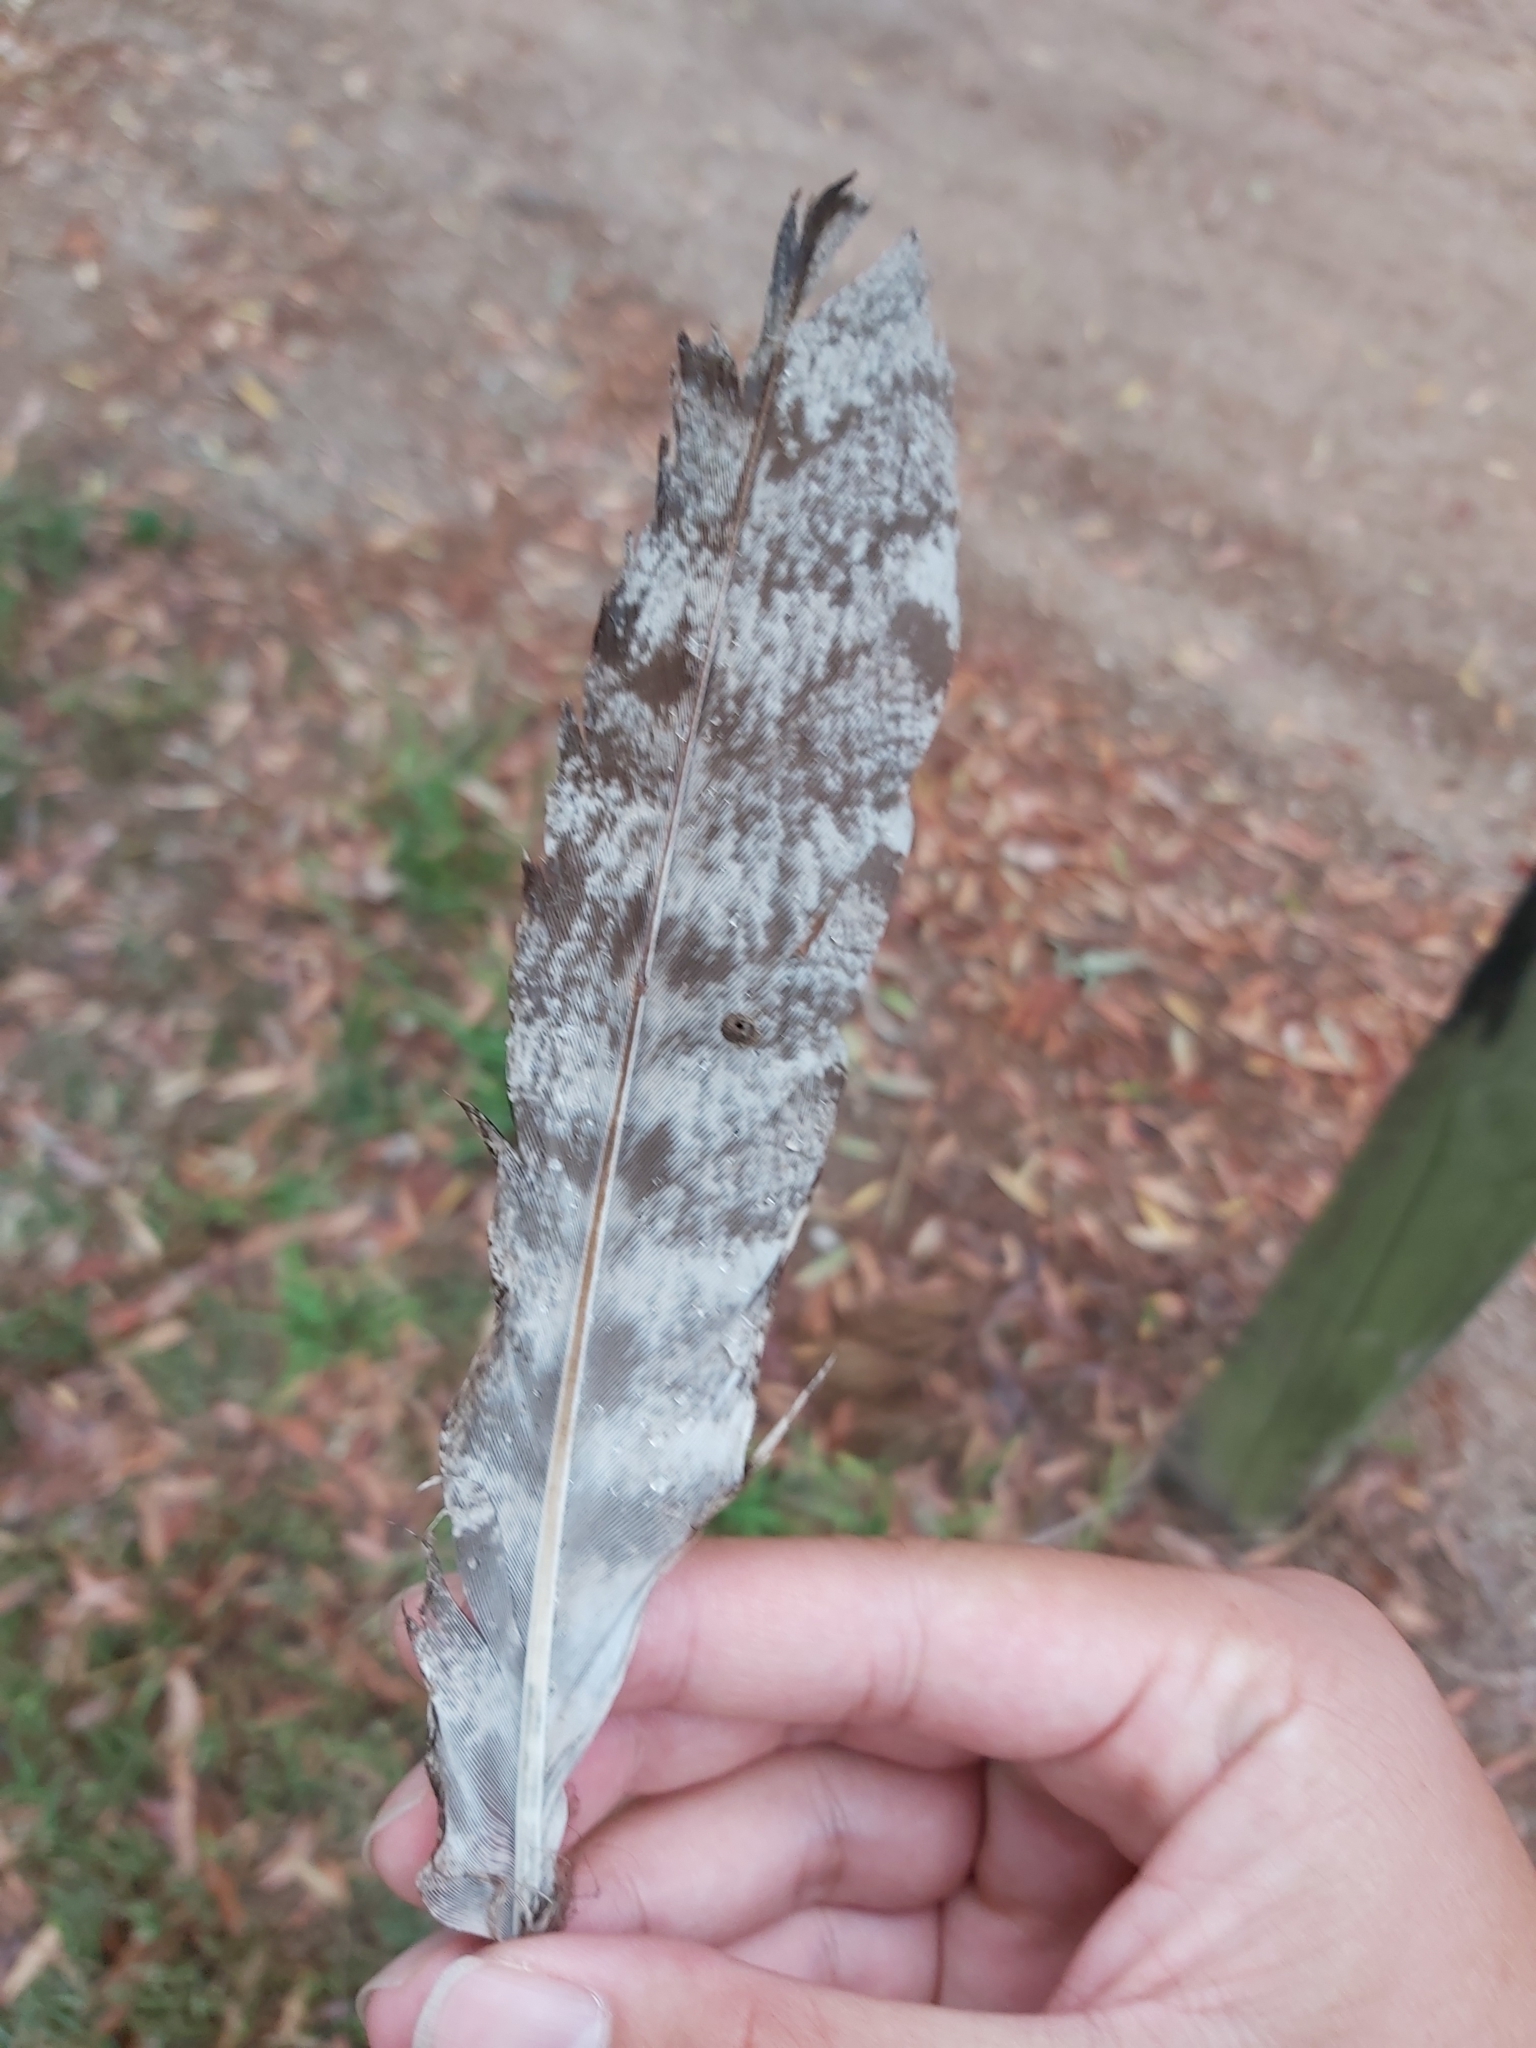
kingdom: Animalia
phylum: Chordata
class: Aves
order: Caprimulgiformes
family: Podargidae
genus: Podargus
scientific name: Podargus strigoides
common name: Tawny frogmouth
